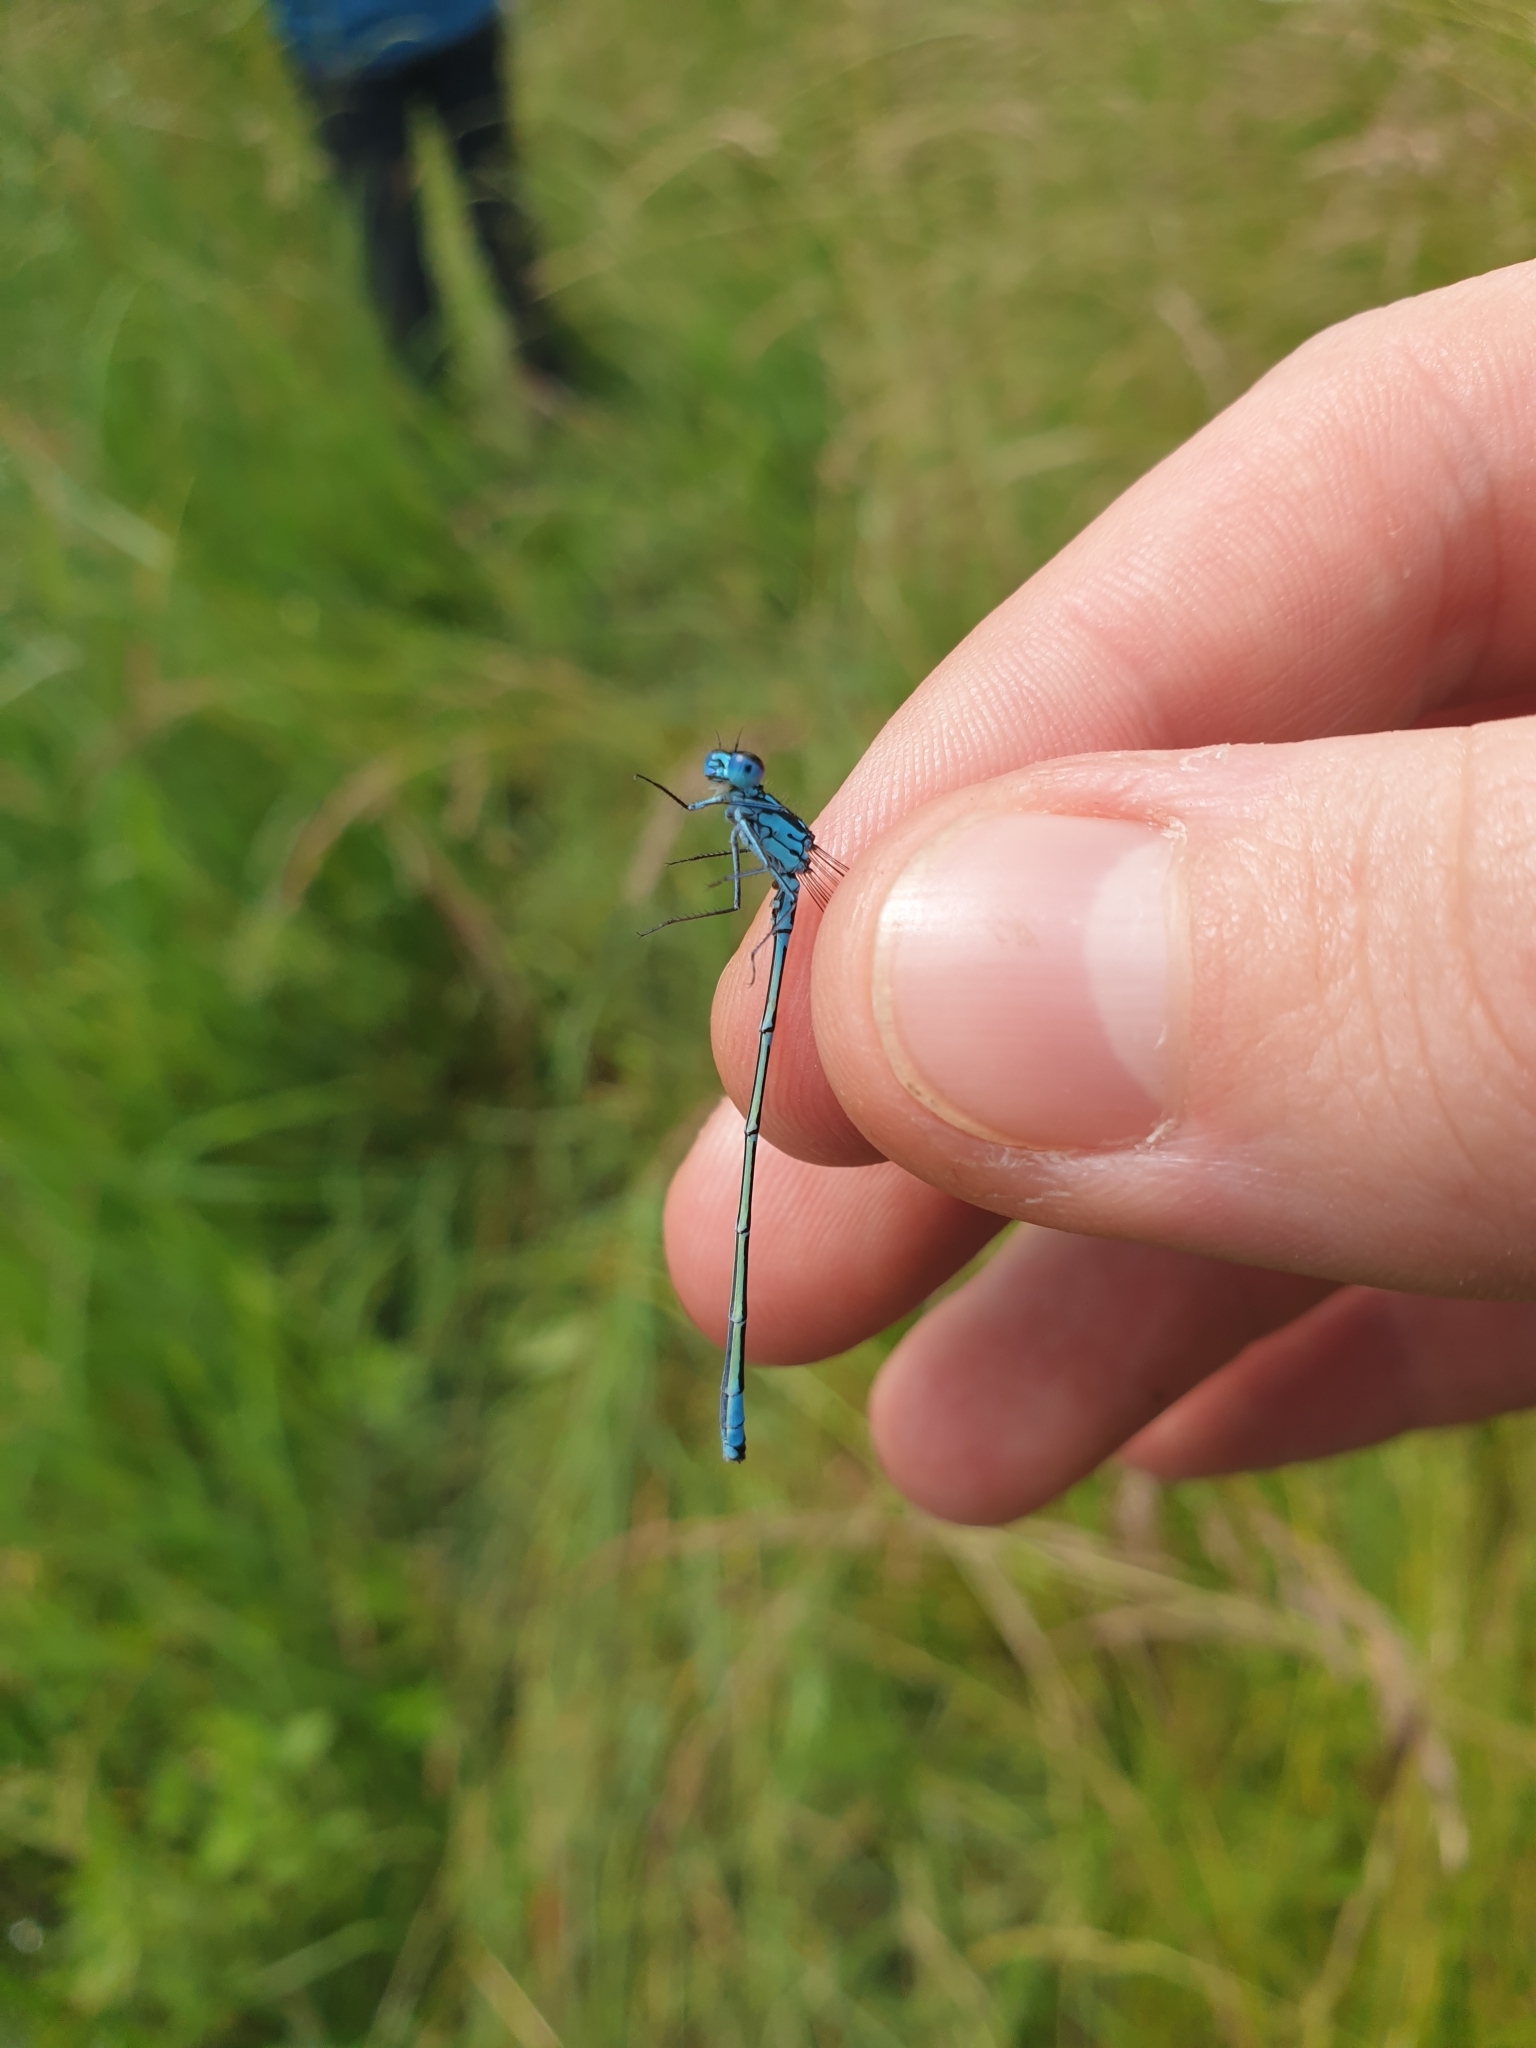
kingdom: Animalia
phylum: Arthropoda
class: Insecta
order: Odonata
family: Coenagrionidae
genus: Coenagrion
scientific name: Coenagrion pulchellum
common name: Variable bluet
